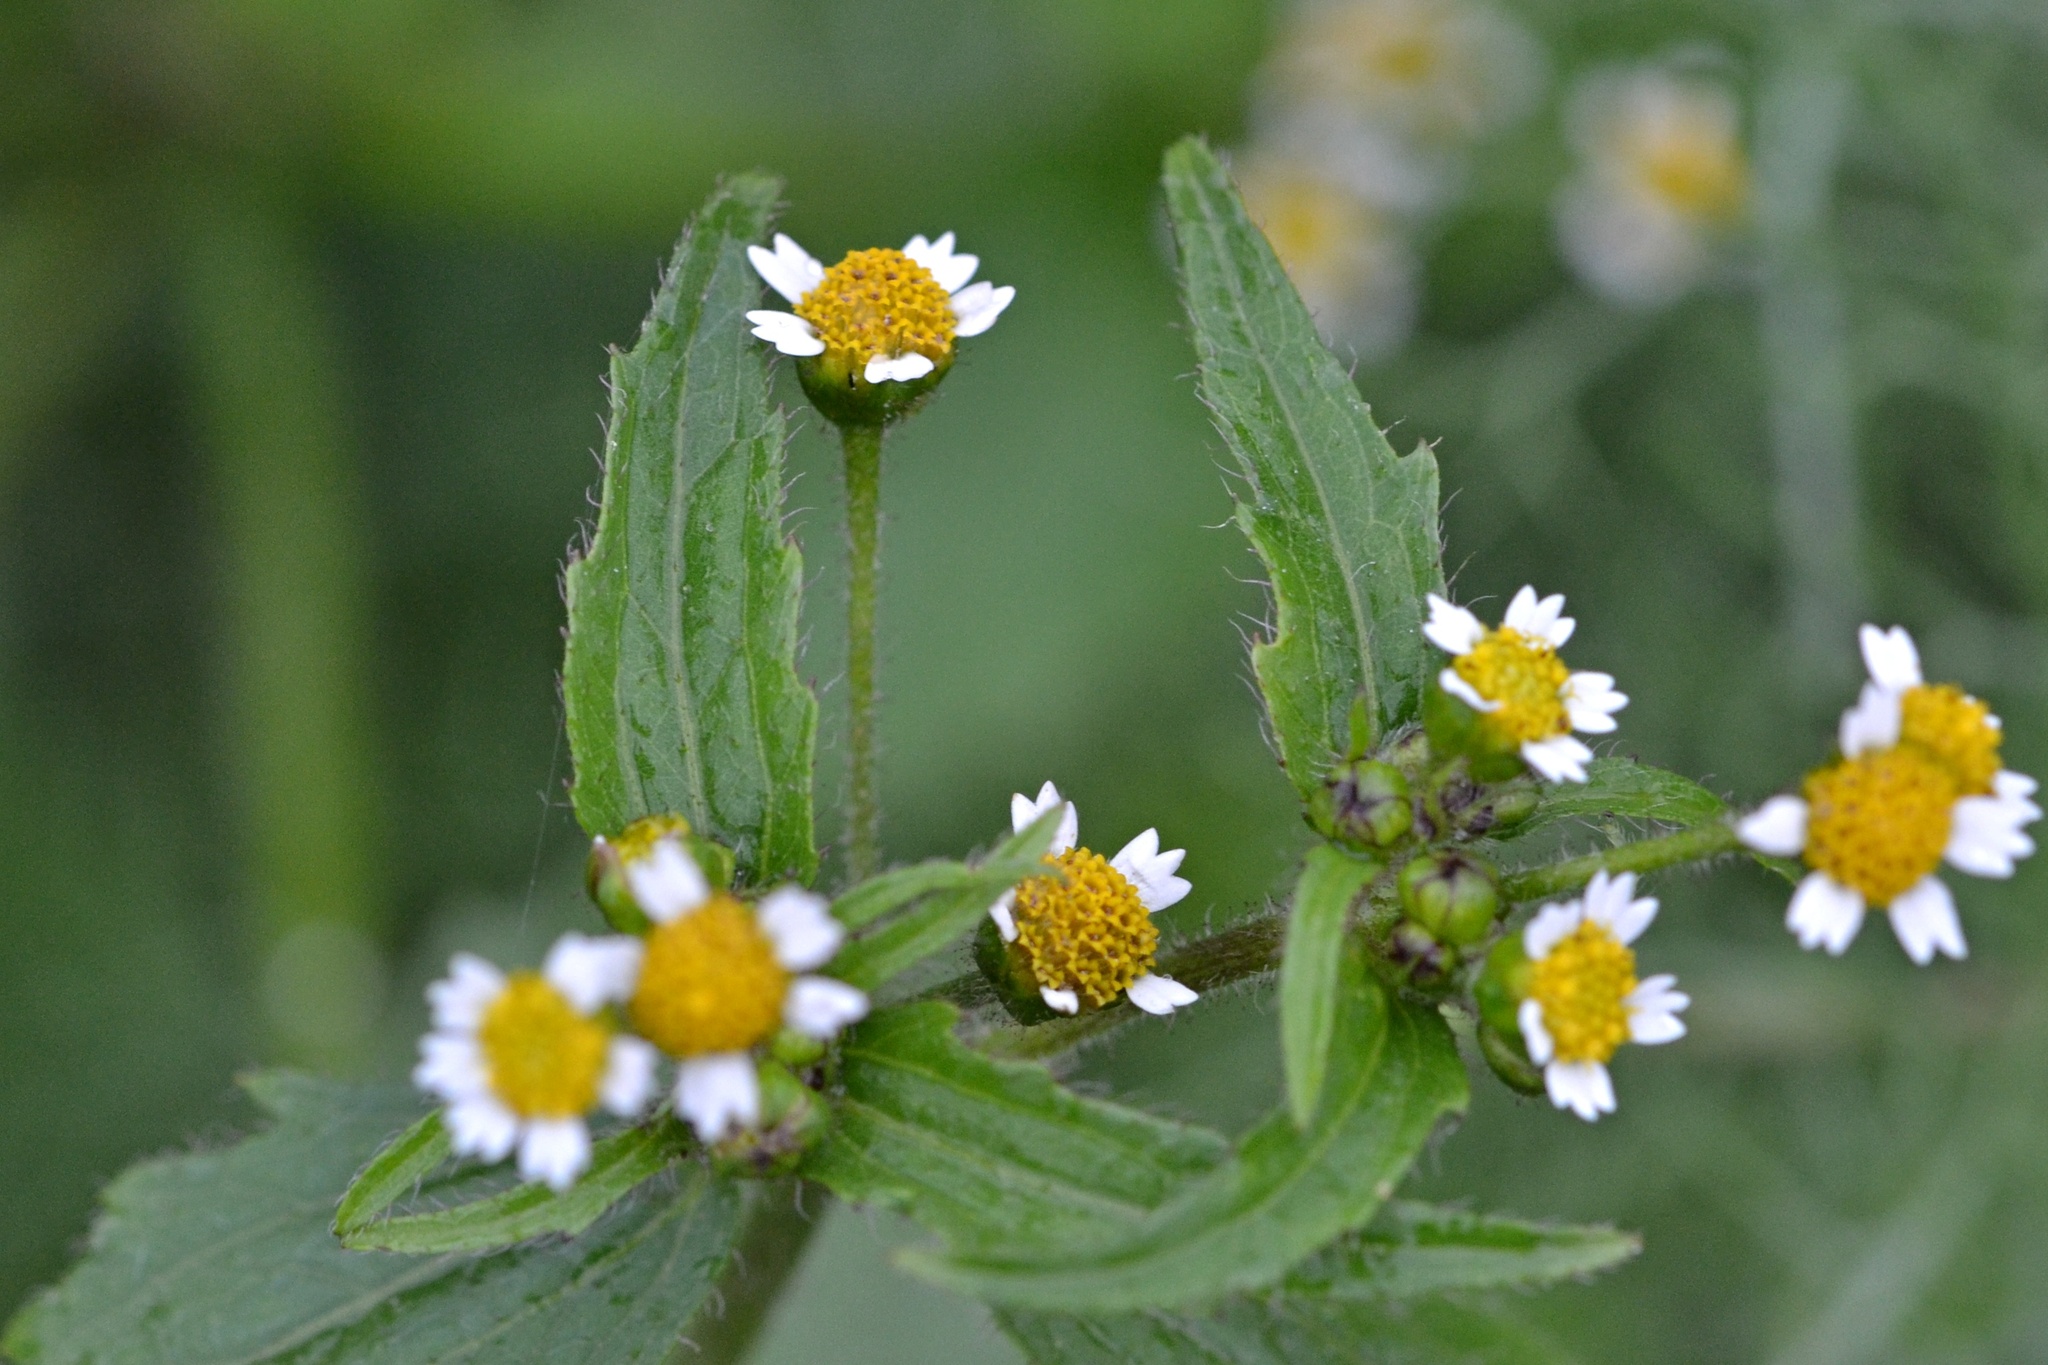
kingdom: Plantae
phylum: Tracheophyta
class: Magnoliopsida
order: Asterales
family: Asteraceae
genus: Galinsoga
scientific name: Galinsoga quadriradiata
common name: Shaggy soldier
